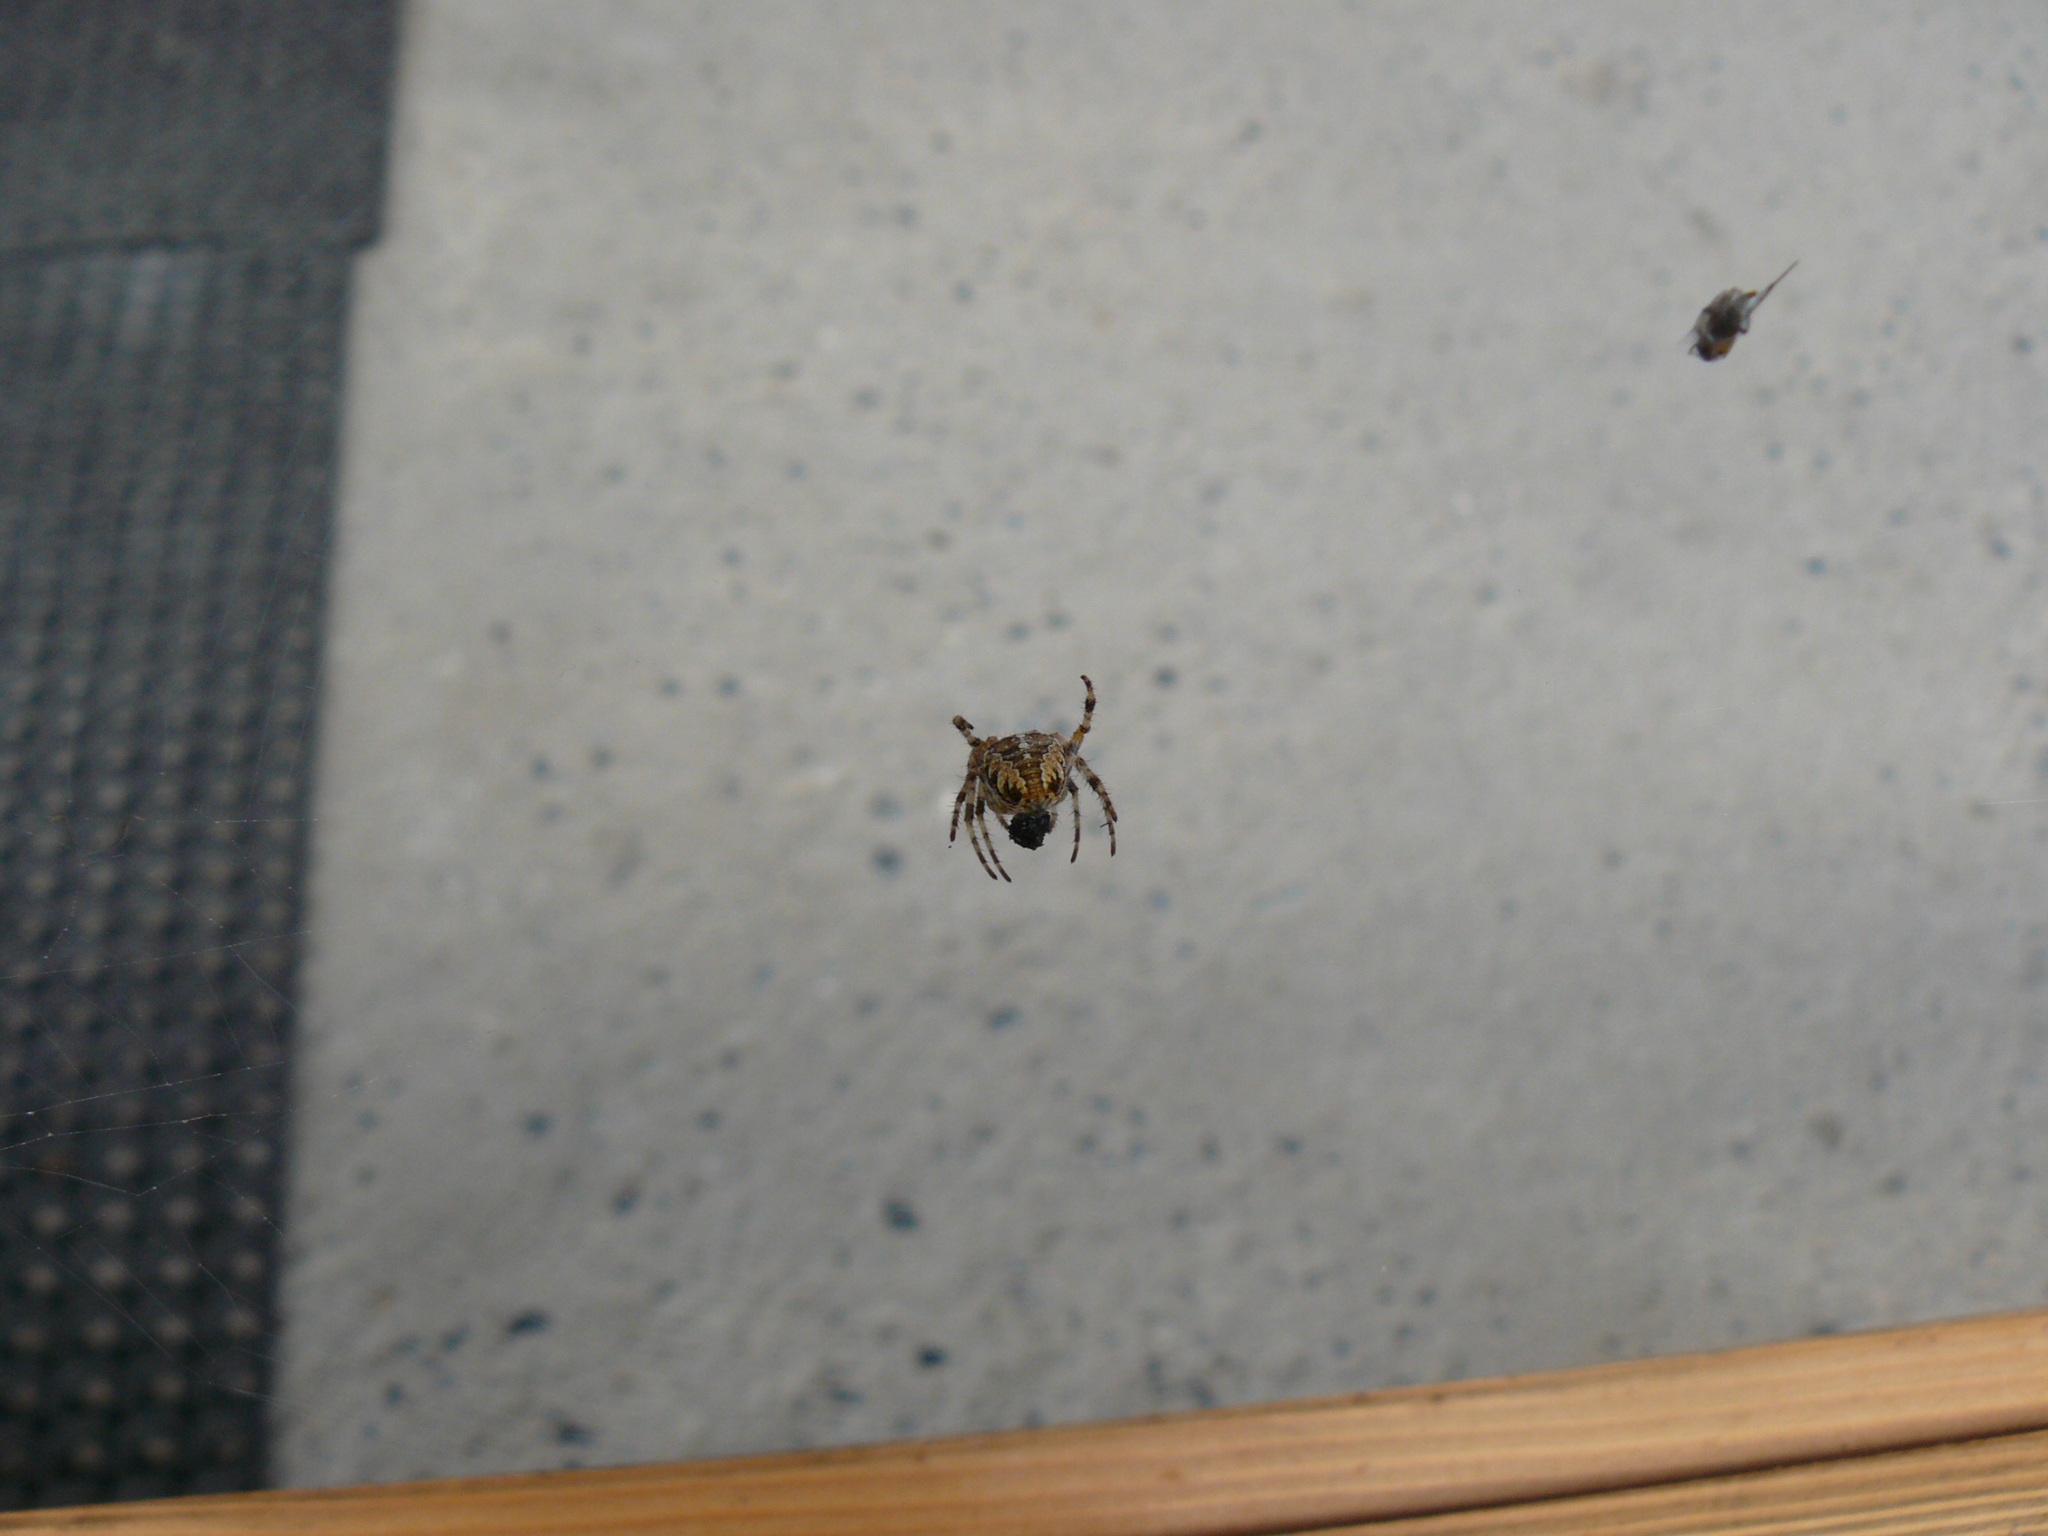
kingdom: Animalia
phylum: Arthropoda
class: Arachnida
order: Araneae
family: Araneidae
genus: Araneus
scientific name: Araneus diadematus
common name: Cross orbweaver
